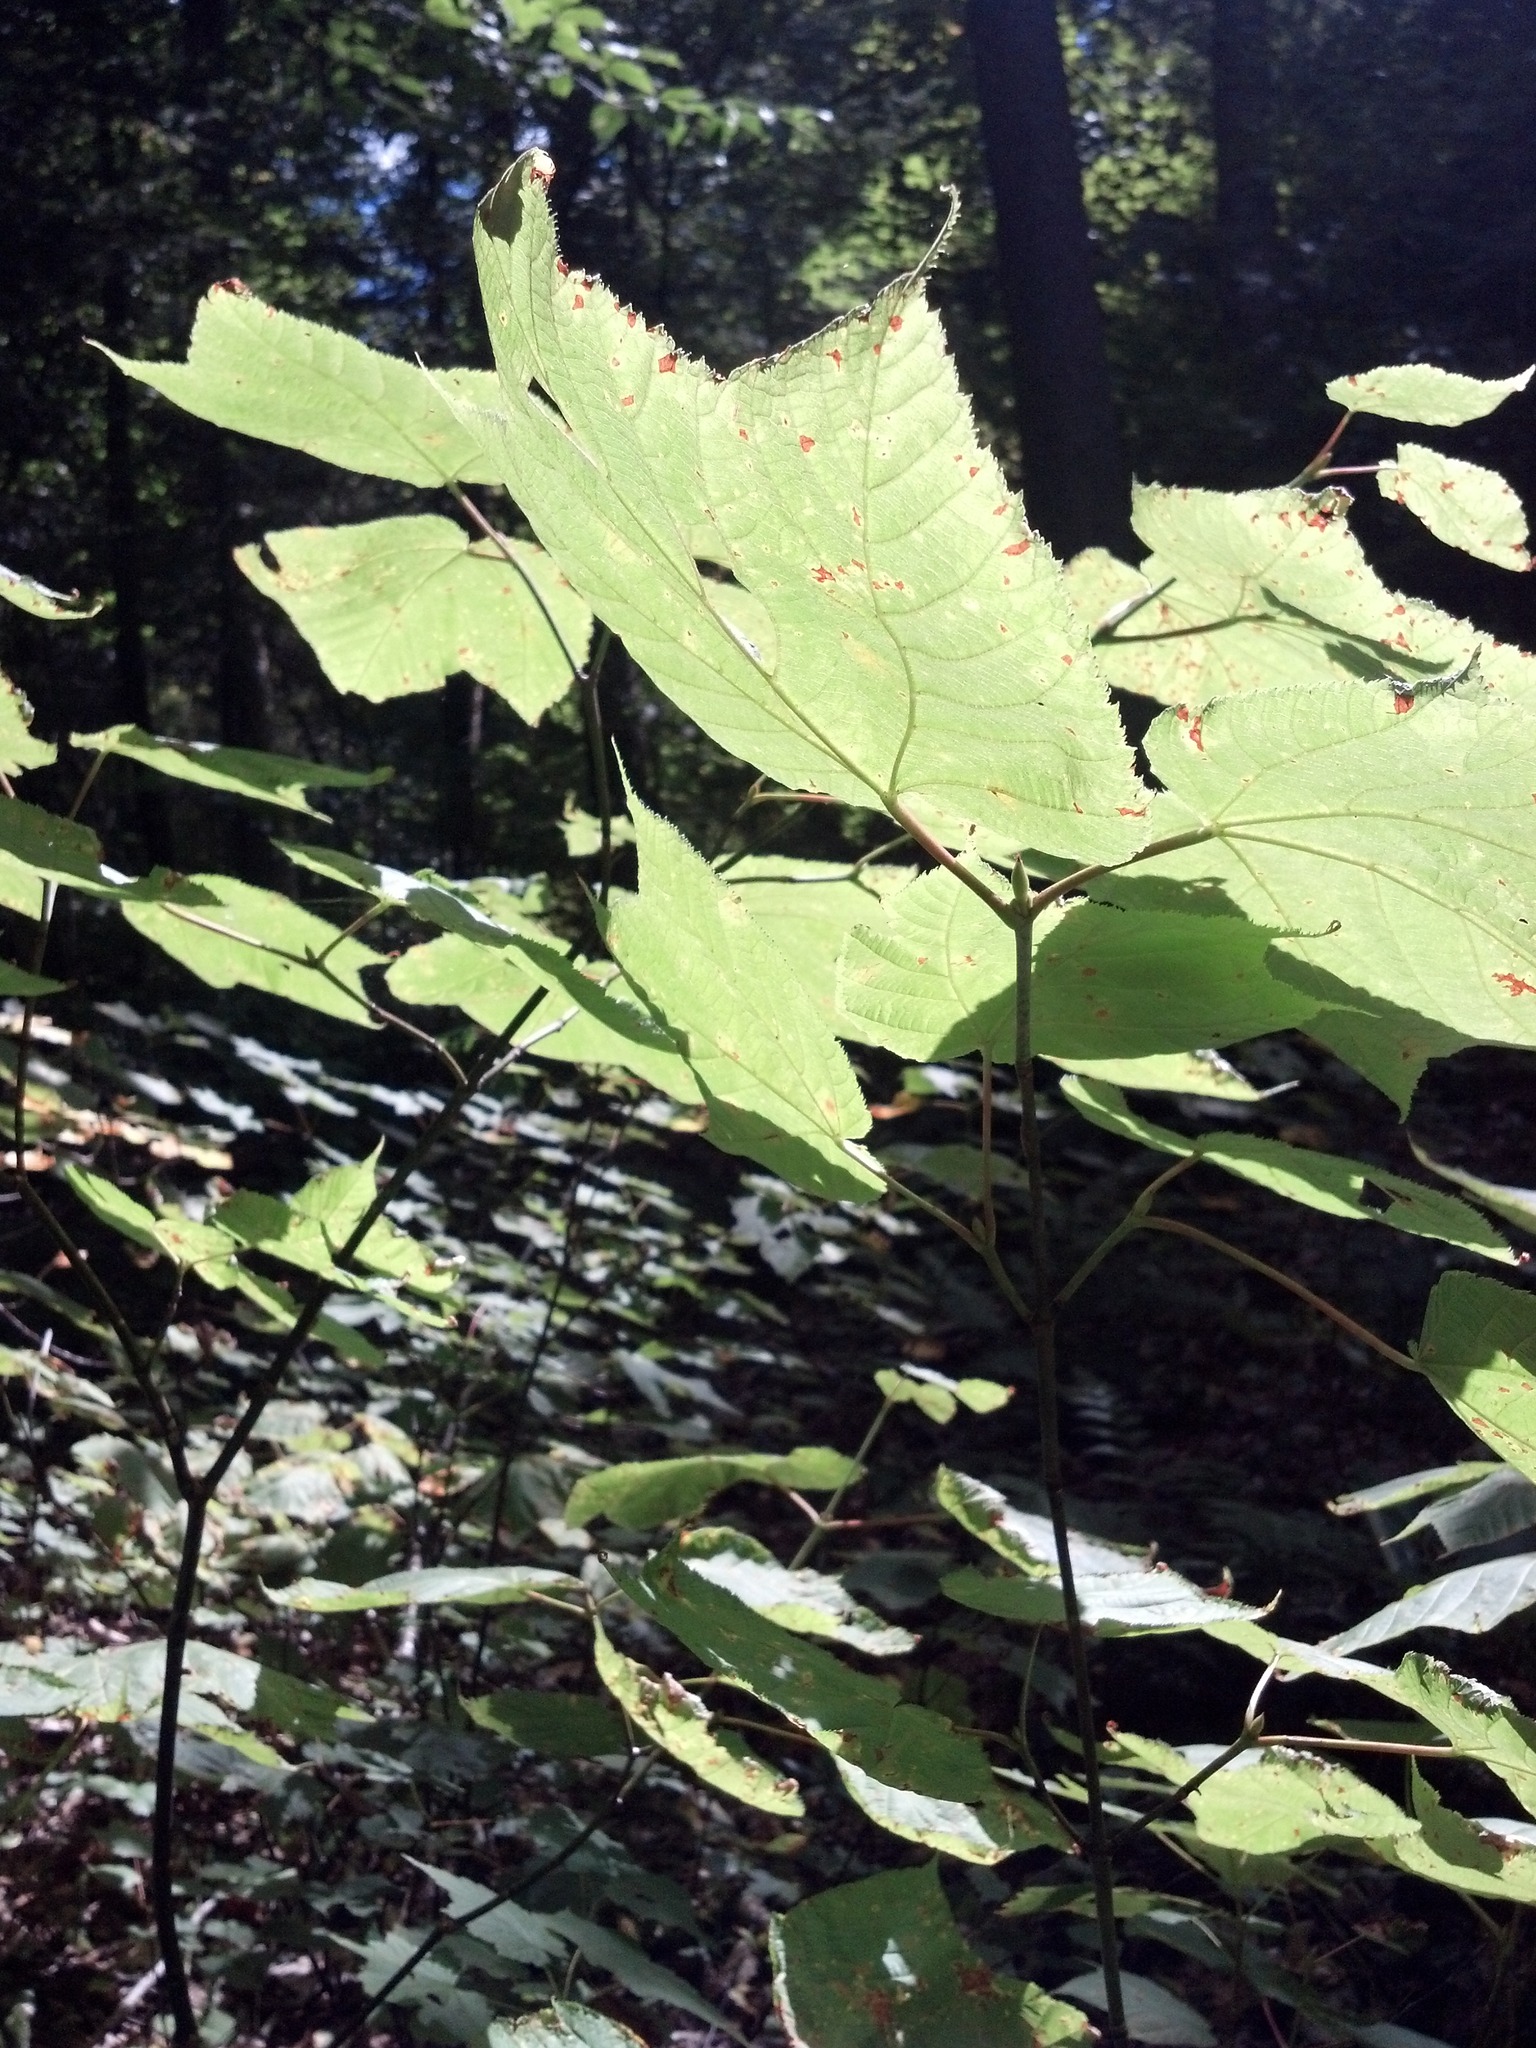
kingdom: Plantae
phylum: Tracheophyta
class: Magnoliopsida
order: Sapindales
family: Sapindaceae
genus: Acer
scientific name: Acer pensylvanicum
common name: Moosewood
